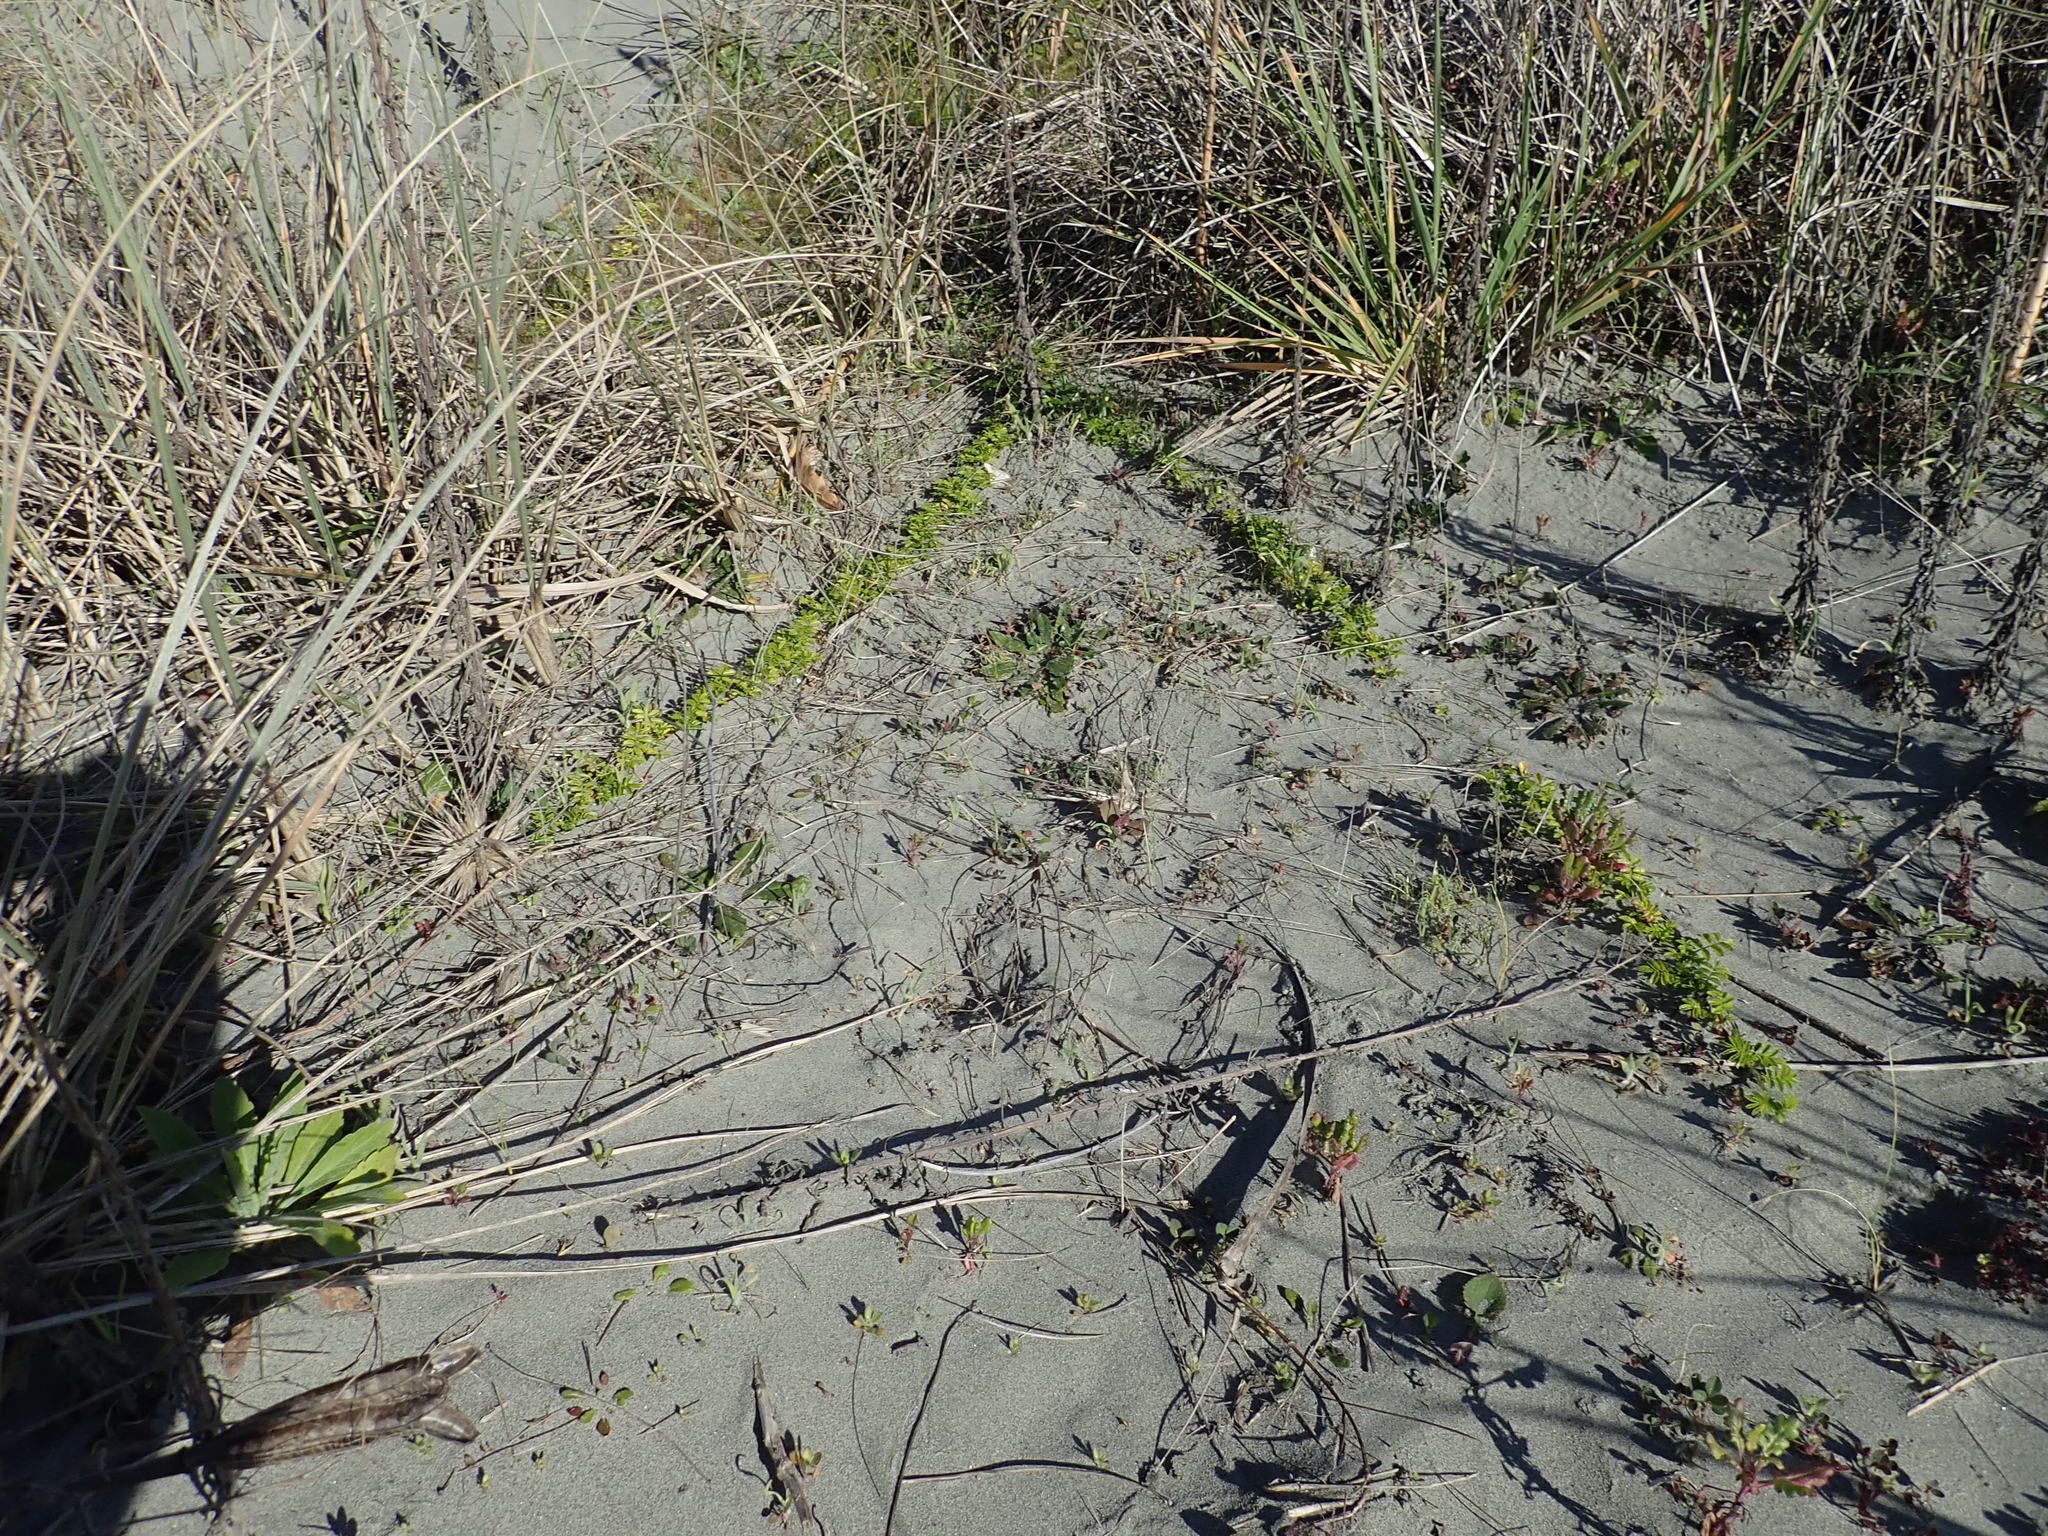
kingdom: Plantae
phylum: Tracheophyta
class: Magnoliopsida
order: Rosales
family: Rosaceae
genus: Acaena
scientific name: Acaena novae-zelandiae
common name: Pirri-pirri-bur
